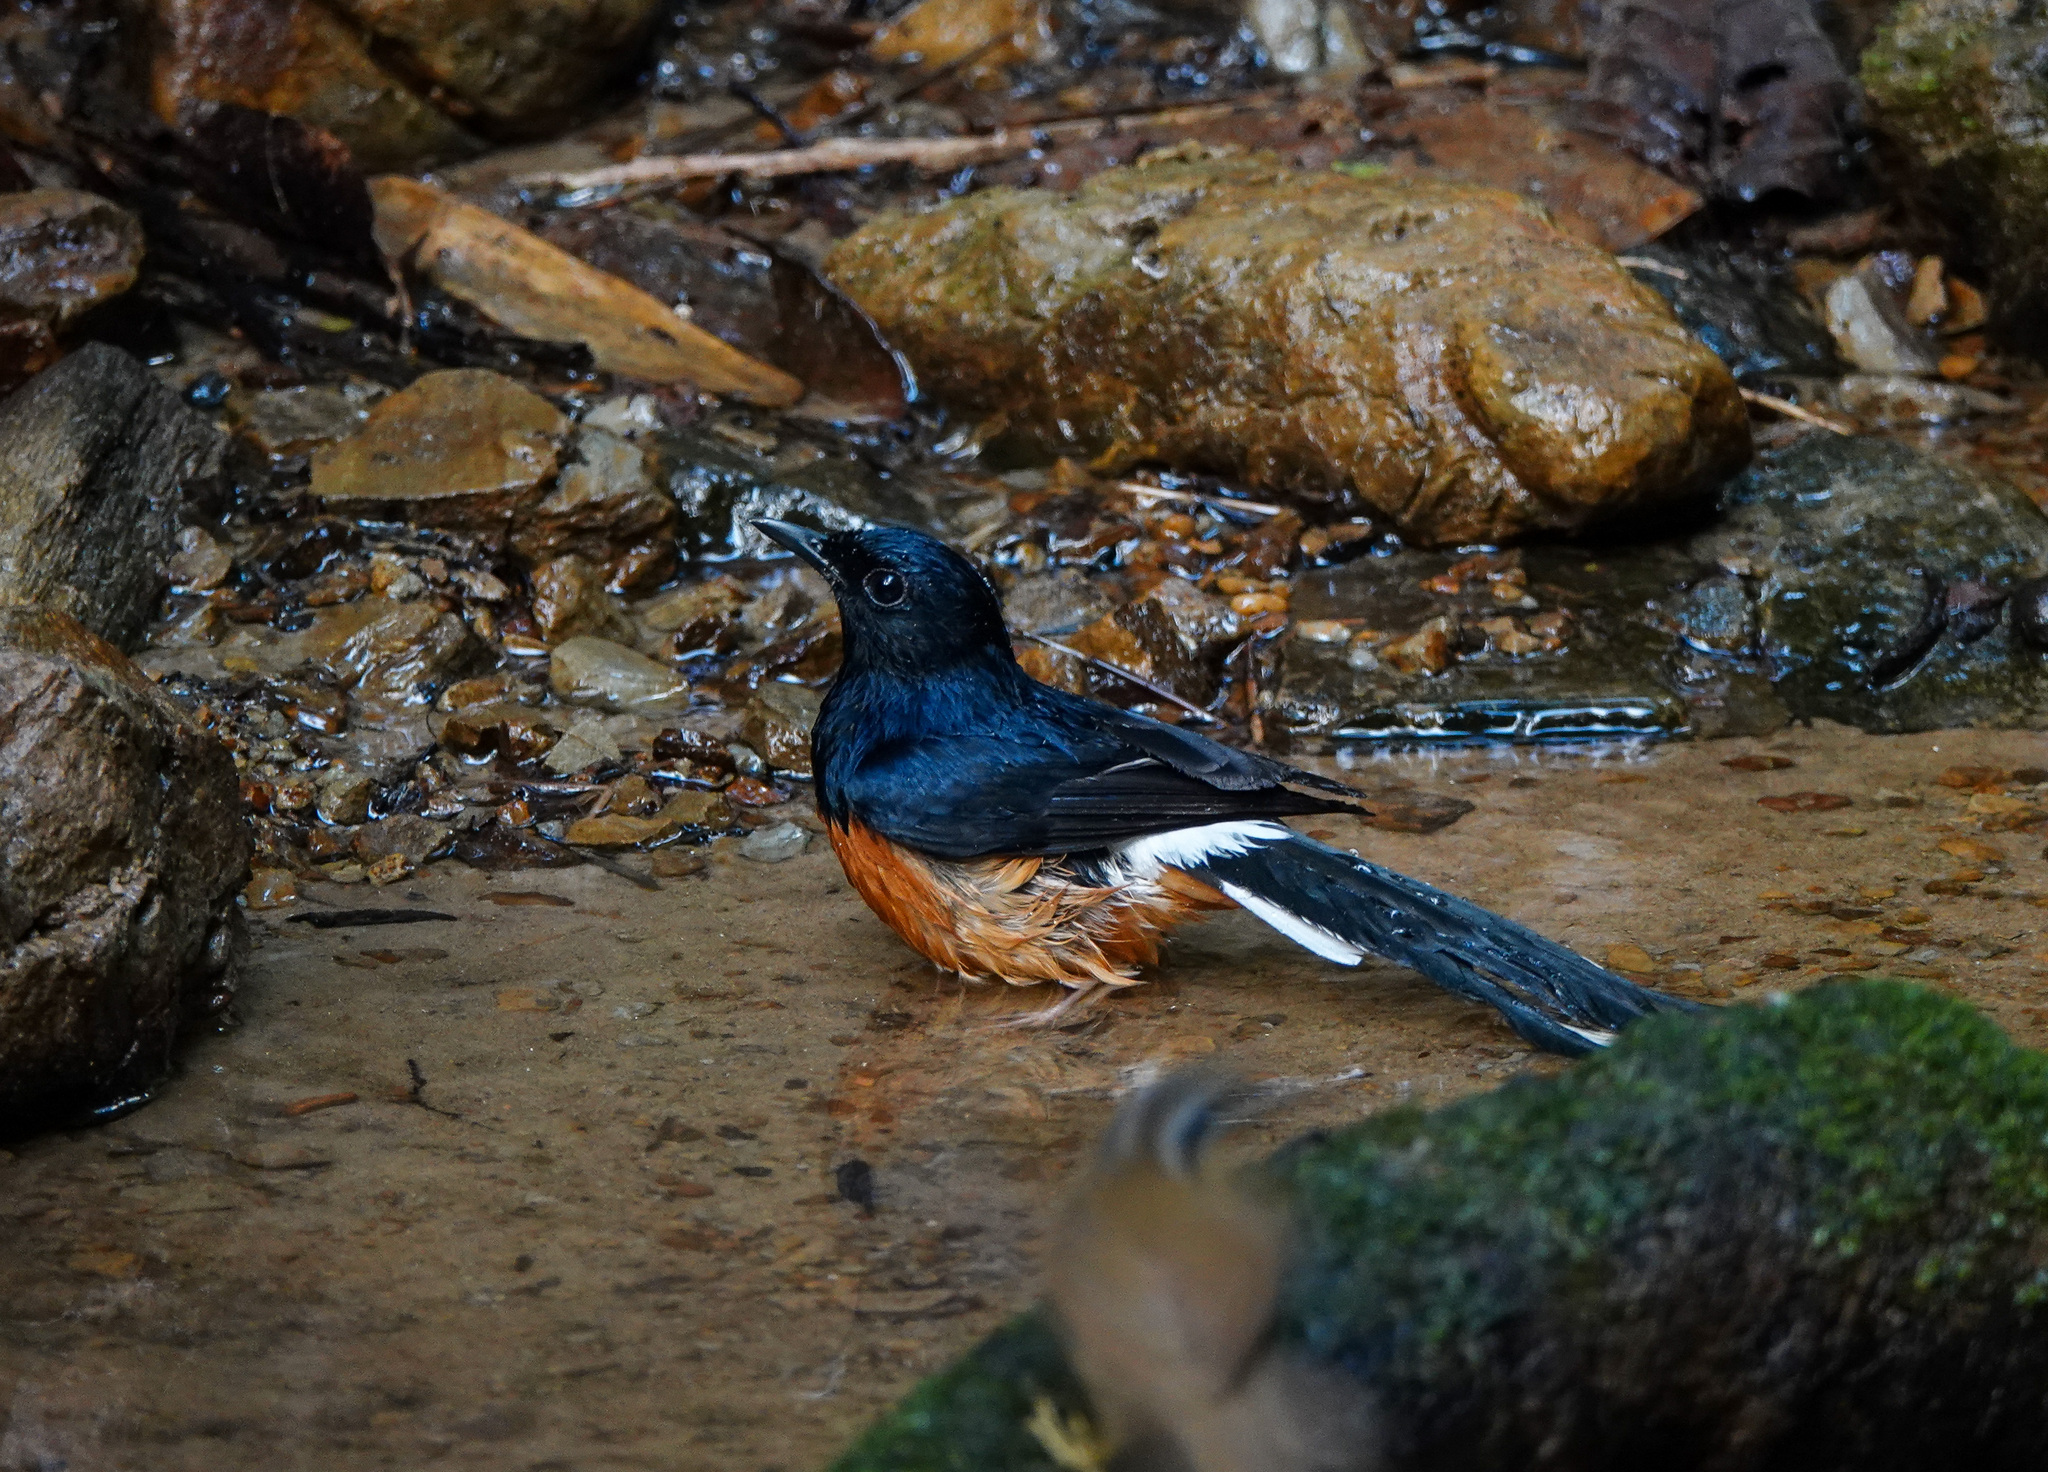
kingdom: Animalia
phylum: Chordata
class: Aves
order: Passeriformes
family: Muscicapidae
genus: Copsychus
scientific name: Copsychus malabaricus
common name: White-rumped shama
